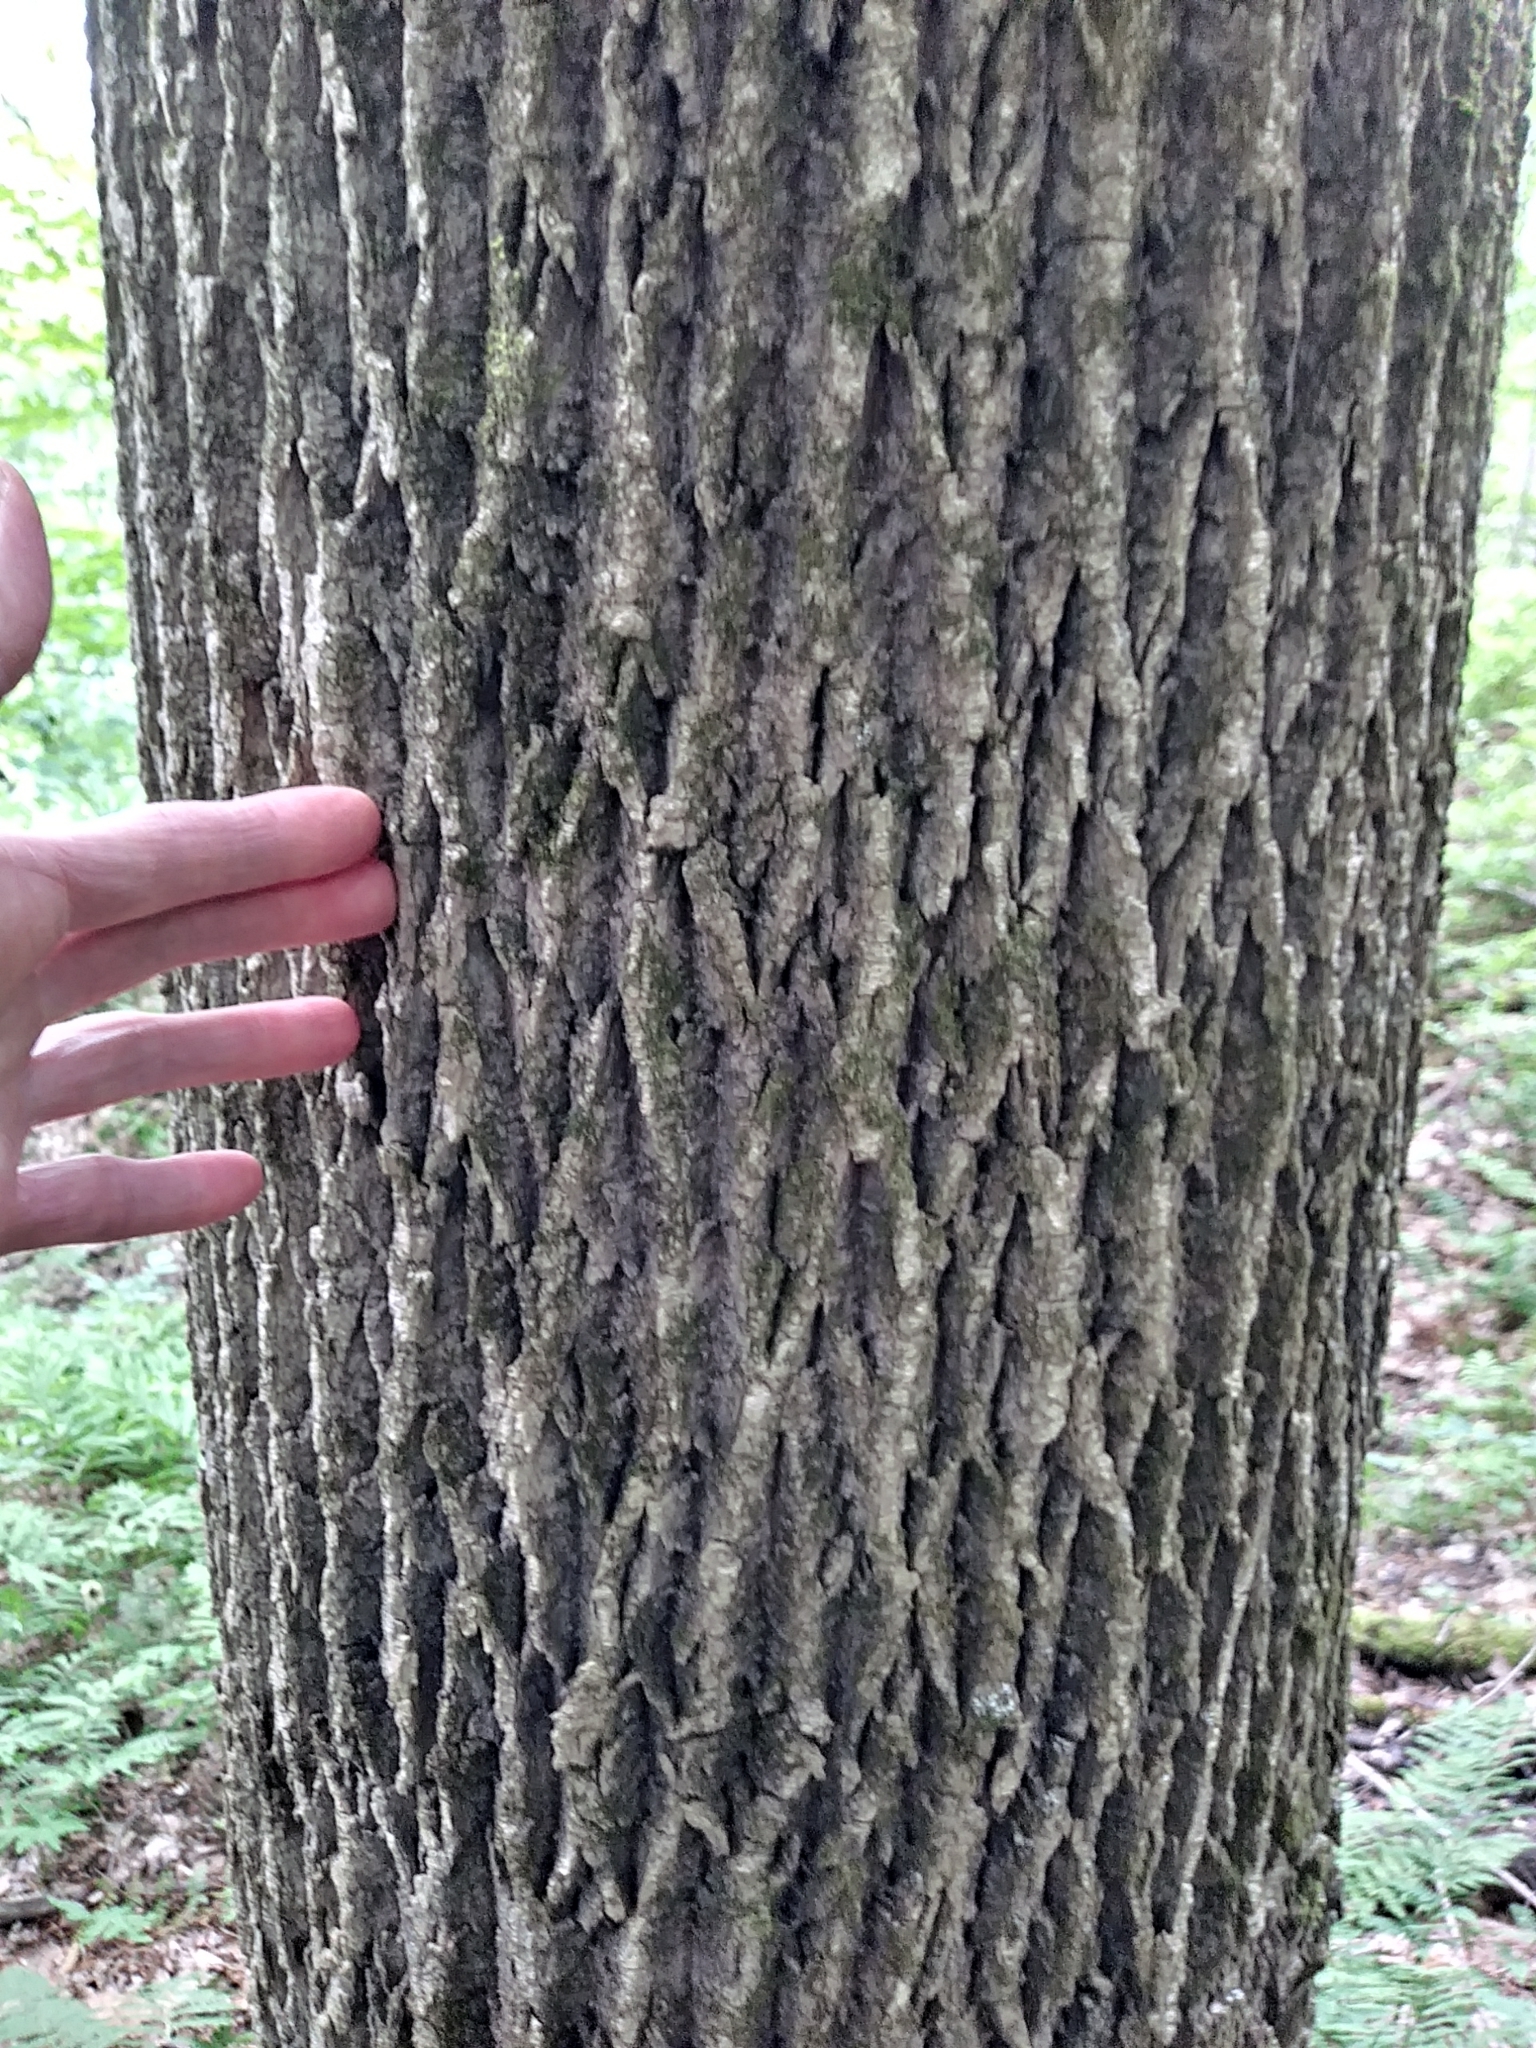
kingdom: Plantae
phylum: Tracheophyta
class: Magnoliopsida
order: Lamiales
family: Oleaceae
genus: Fraxinus
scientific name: Fraxinus americana
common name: White ash
